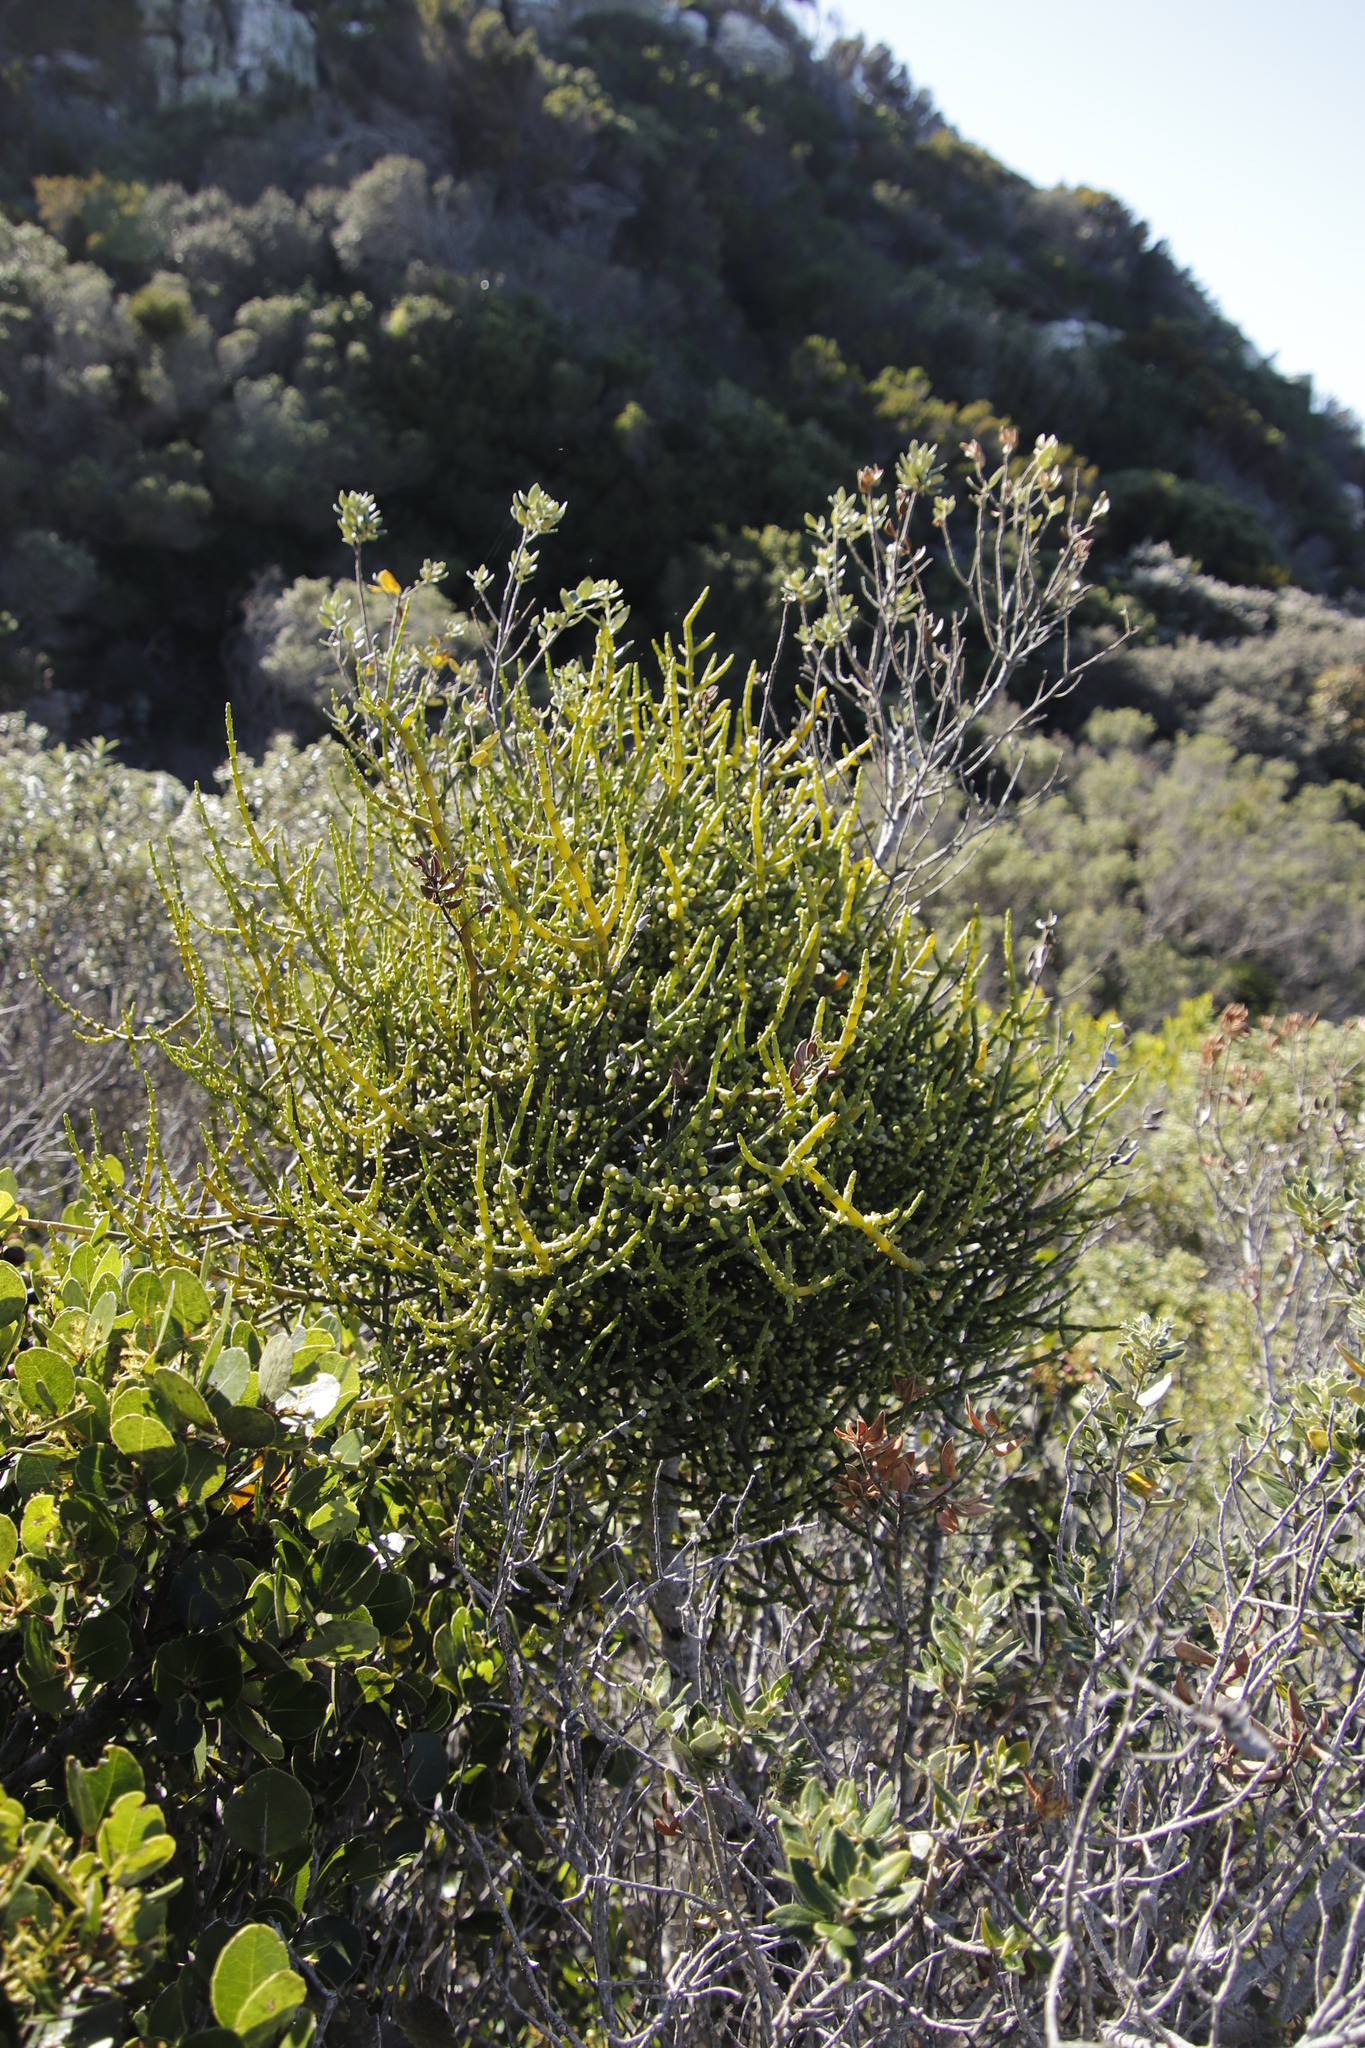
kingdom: Plantae
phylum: Tracheophyta
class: Magnoliopsida
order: Rosales
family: Rhamnaceae
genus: Phylica
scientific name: Phylica buxifolia
